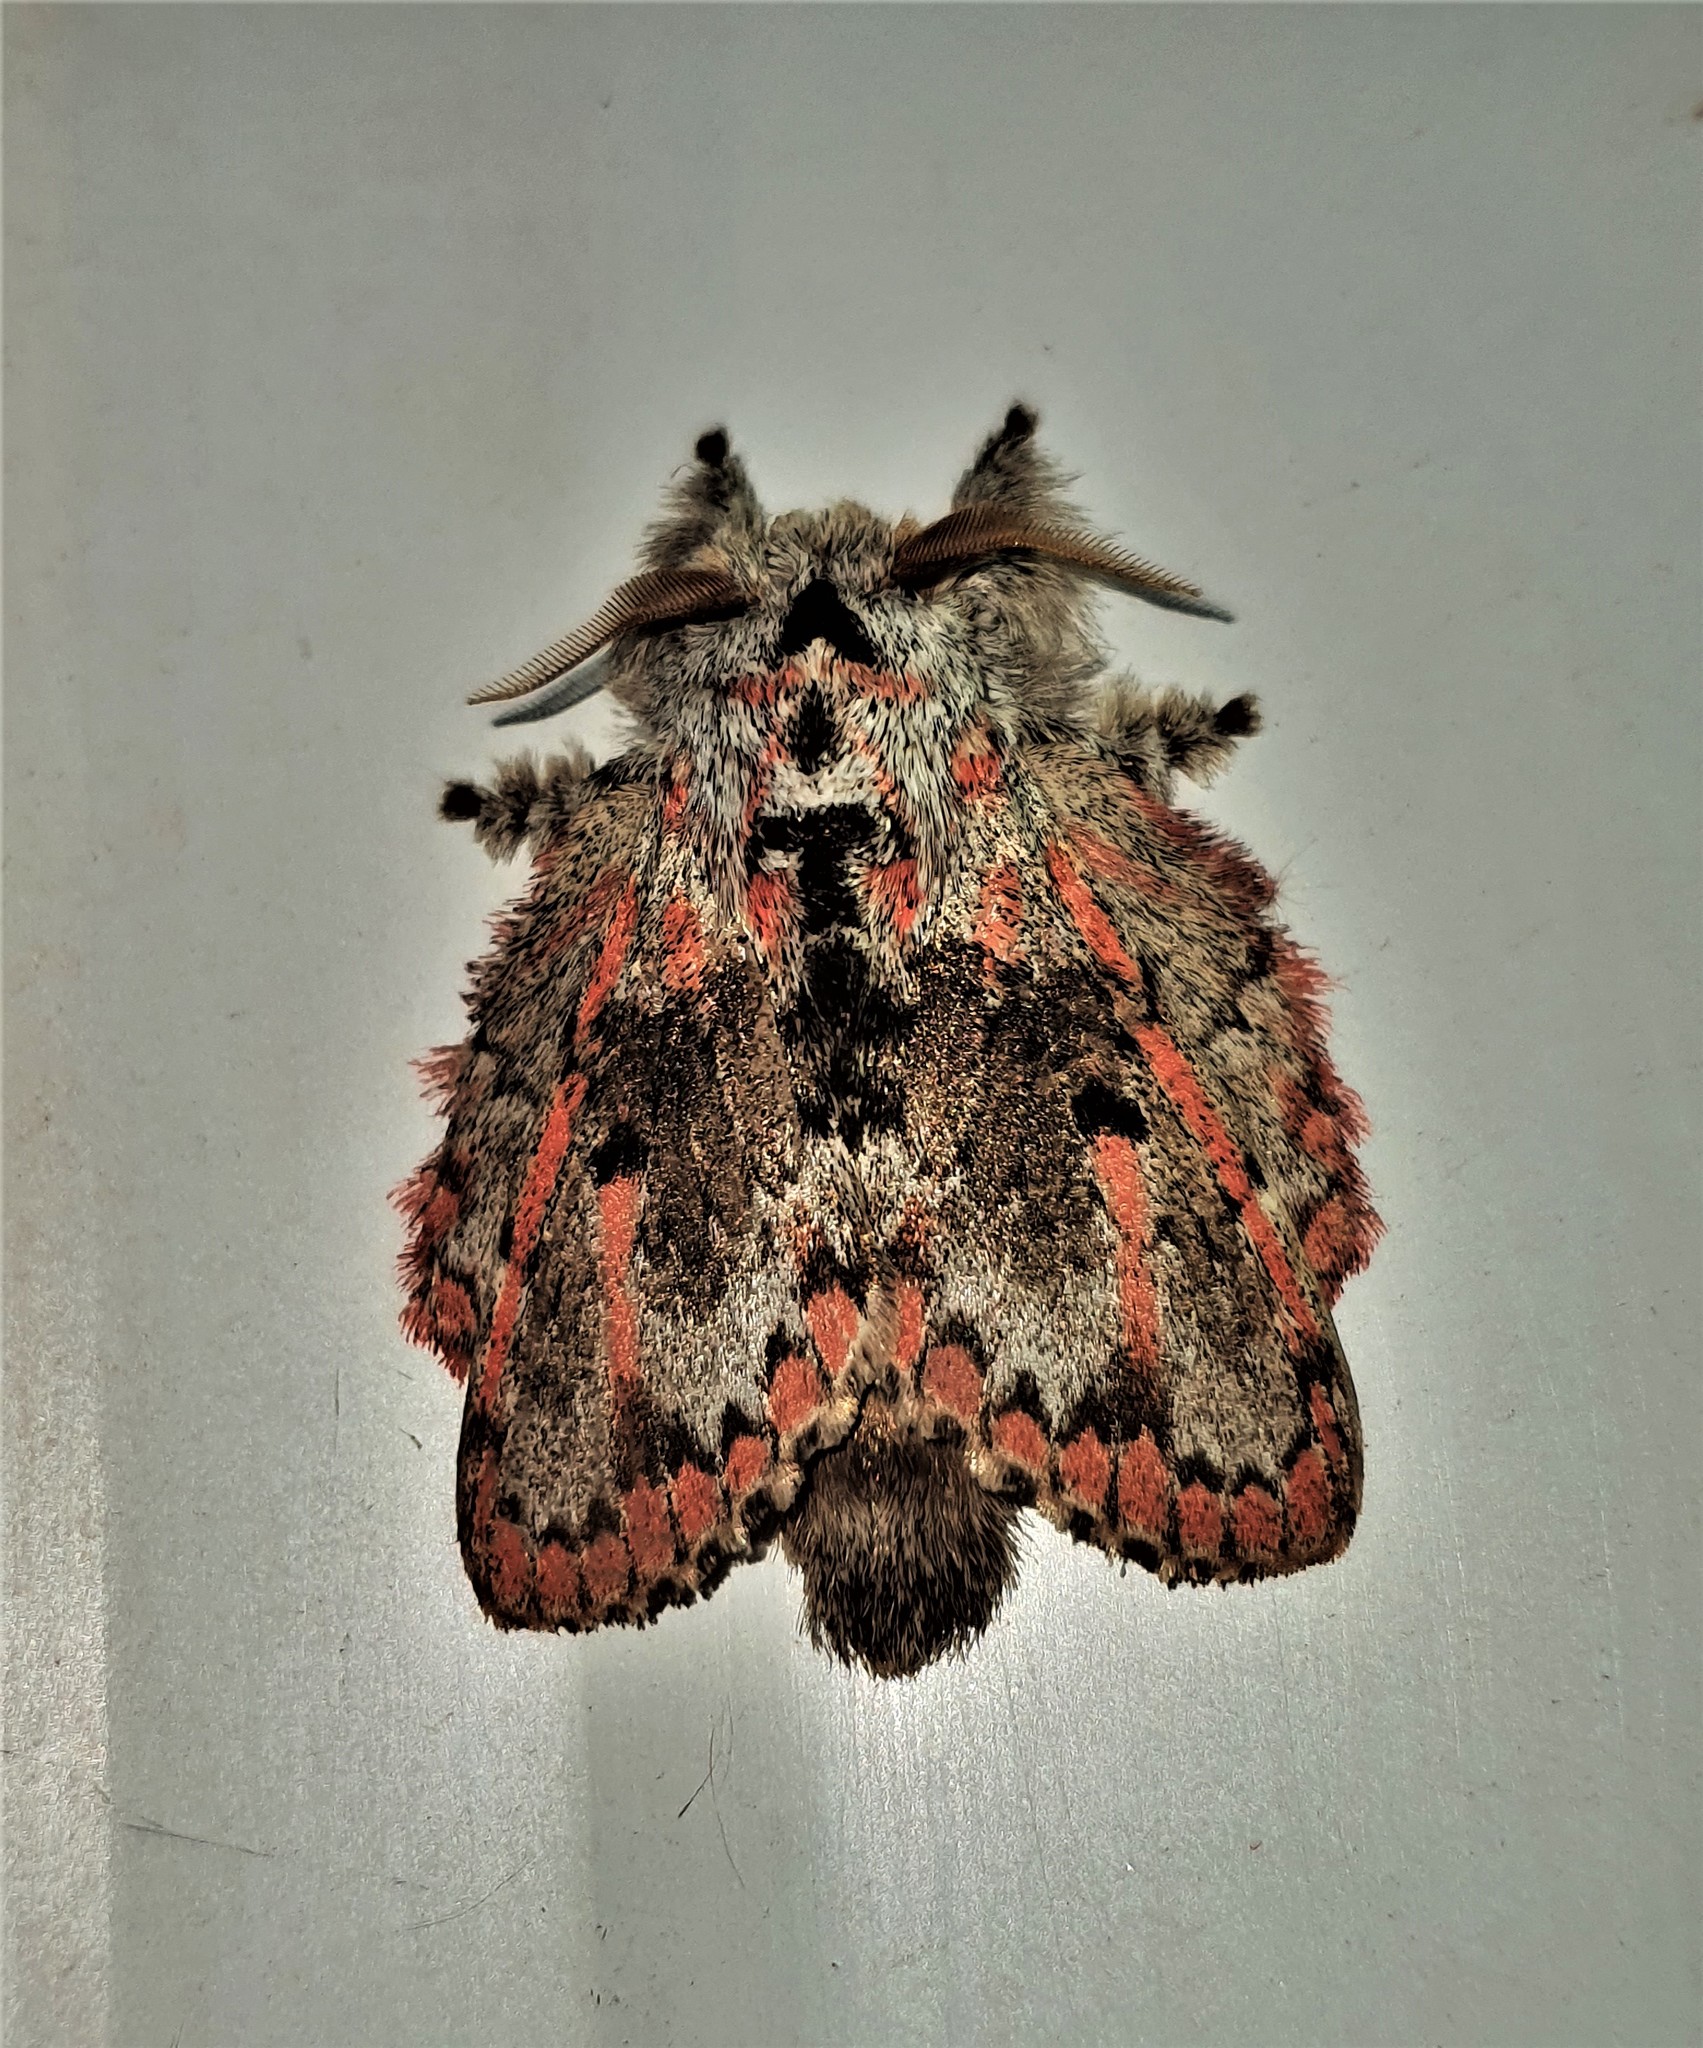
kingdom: Animalia
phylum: Arthropoda
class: Insecta
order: Lepidoptera
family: Lasiocampidae
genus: Euglyphis
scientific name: Euglyphis gibea
